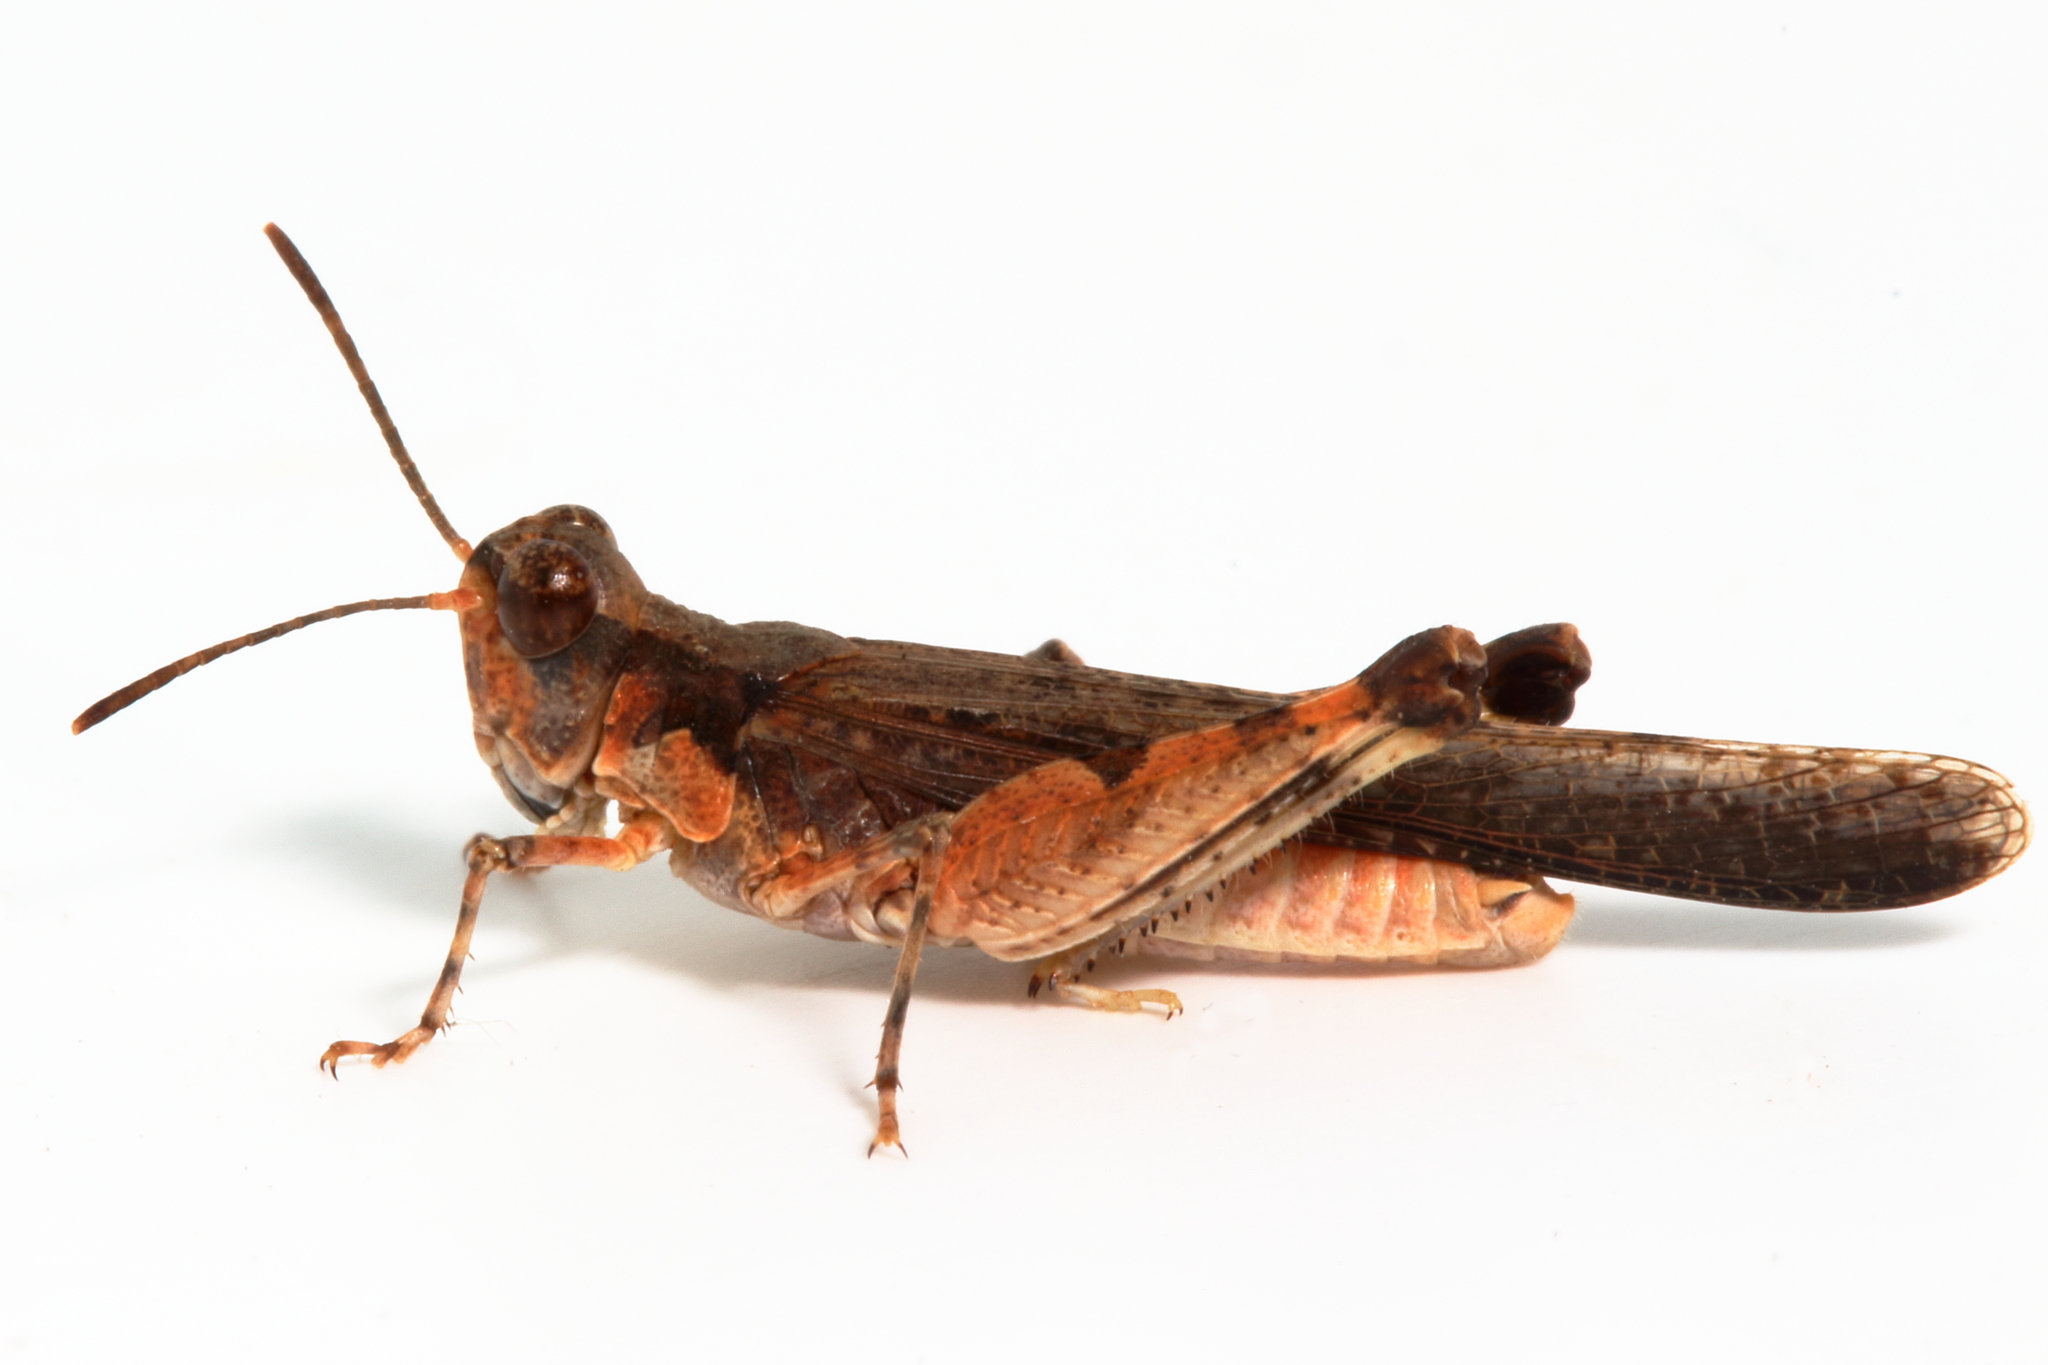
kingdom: Animalia
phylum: Arthropoda
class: Insecta
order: Orthoptera
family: Acrididae
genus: Pycnostictus
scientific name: Pycnostictus seriatus
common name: Common bandwing
